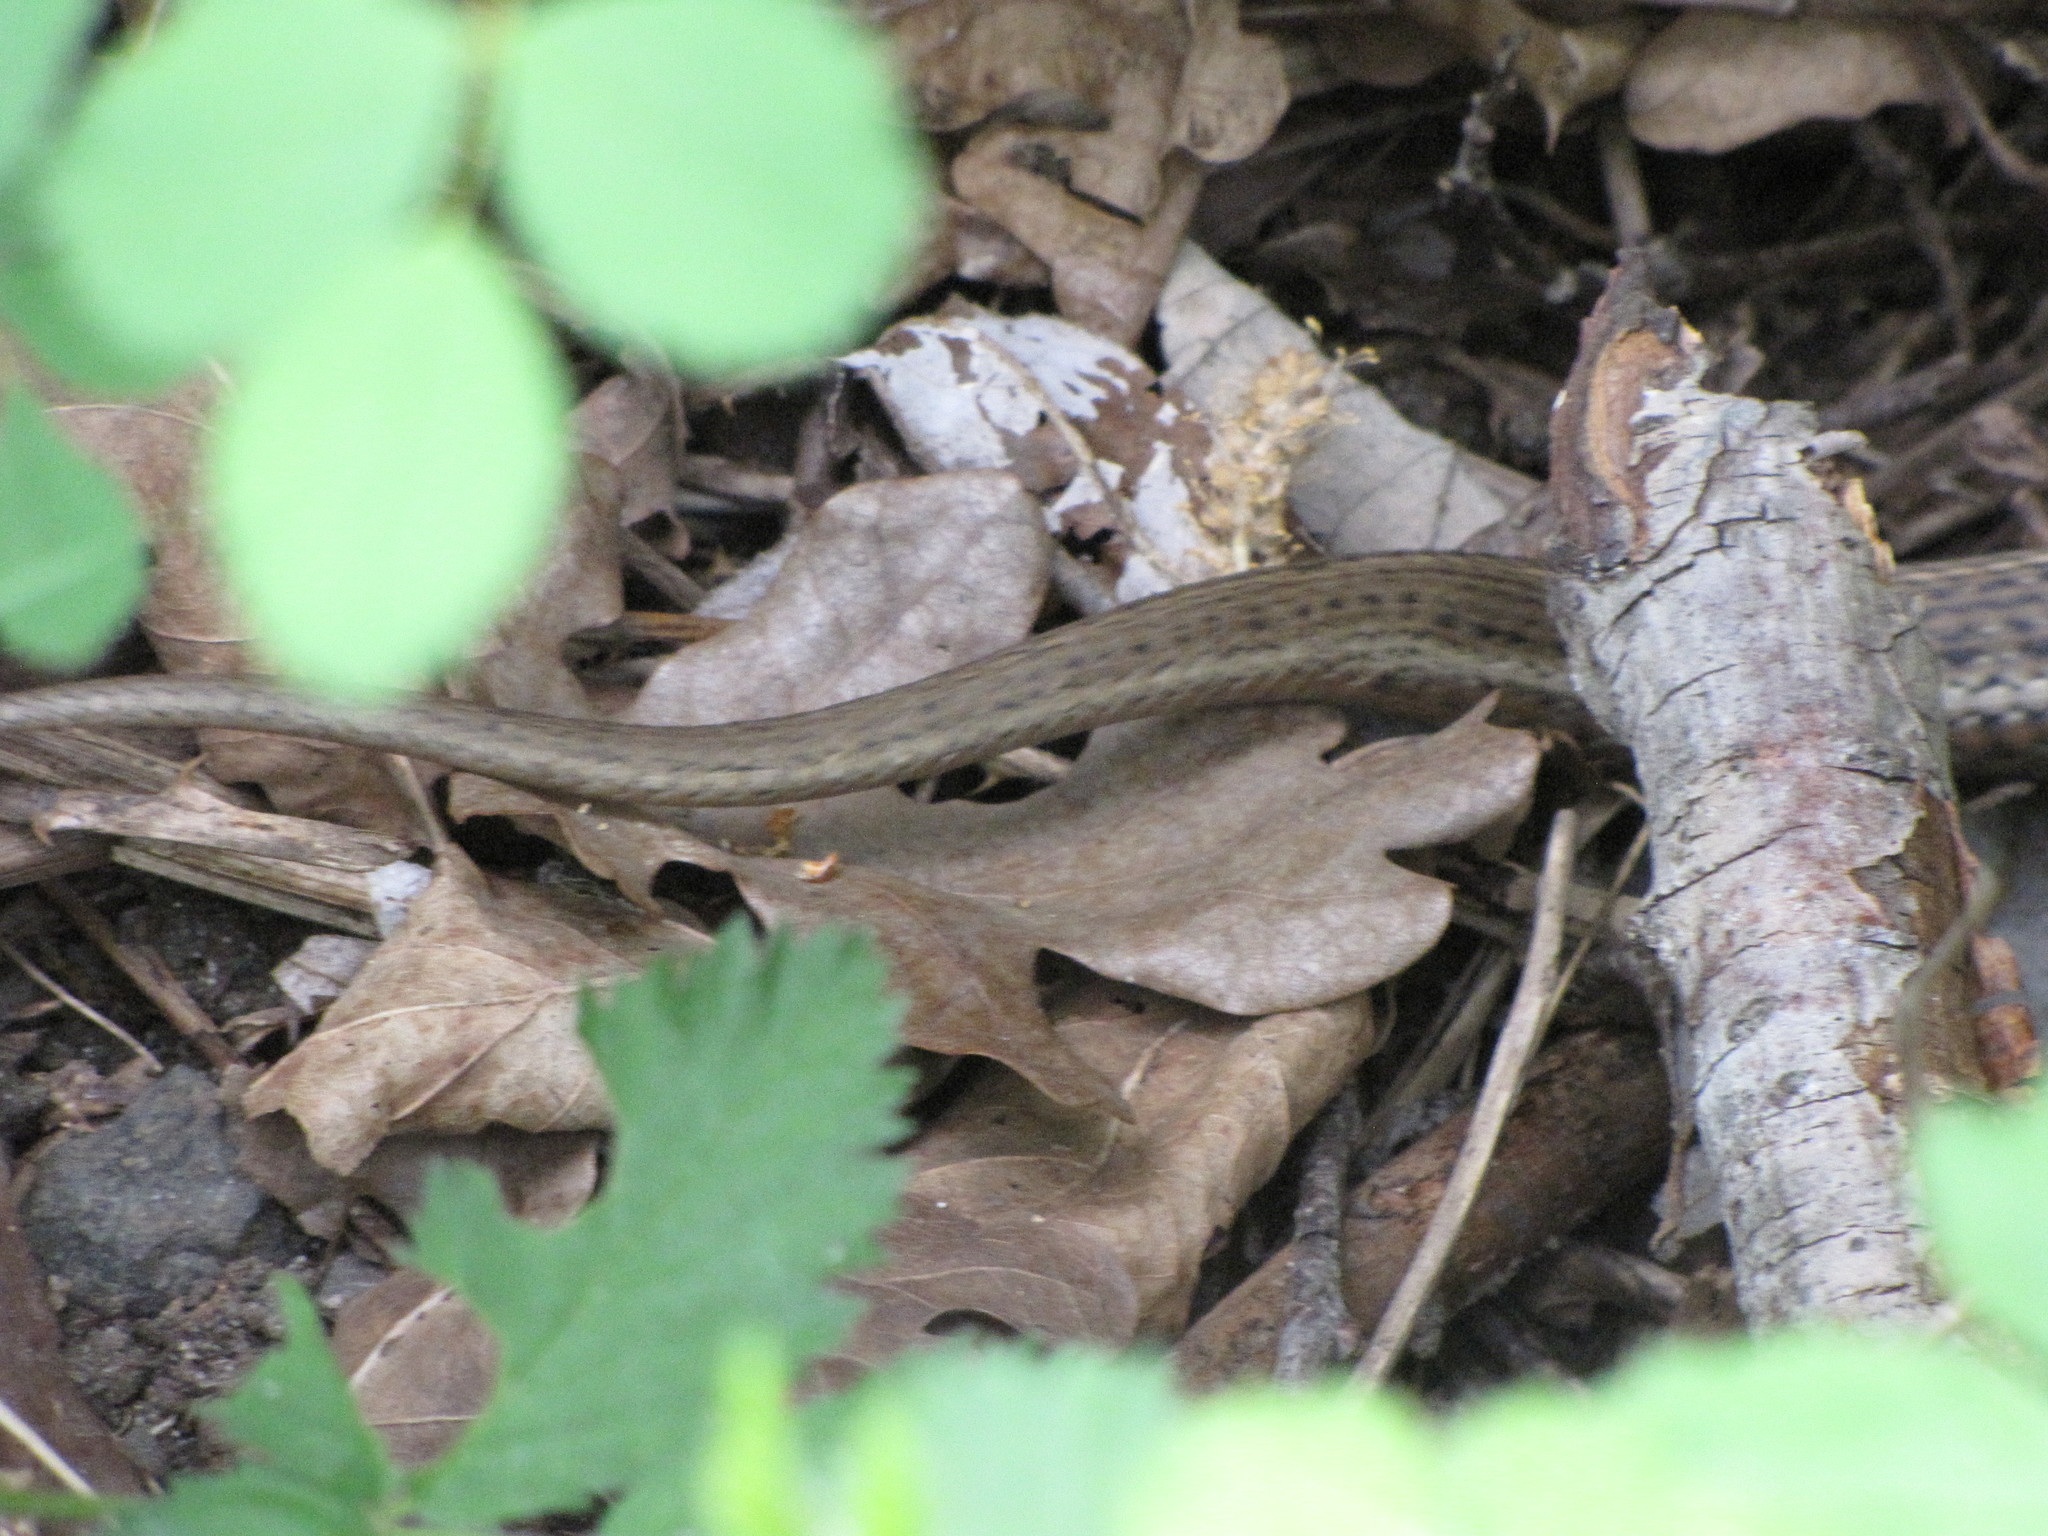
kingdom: Animalia
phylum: Chordata
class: Squamata
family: Colubridae
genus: Thamnophis
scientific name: Thamnophis ordinoides
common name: Northwestern garter snake
